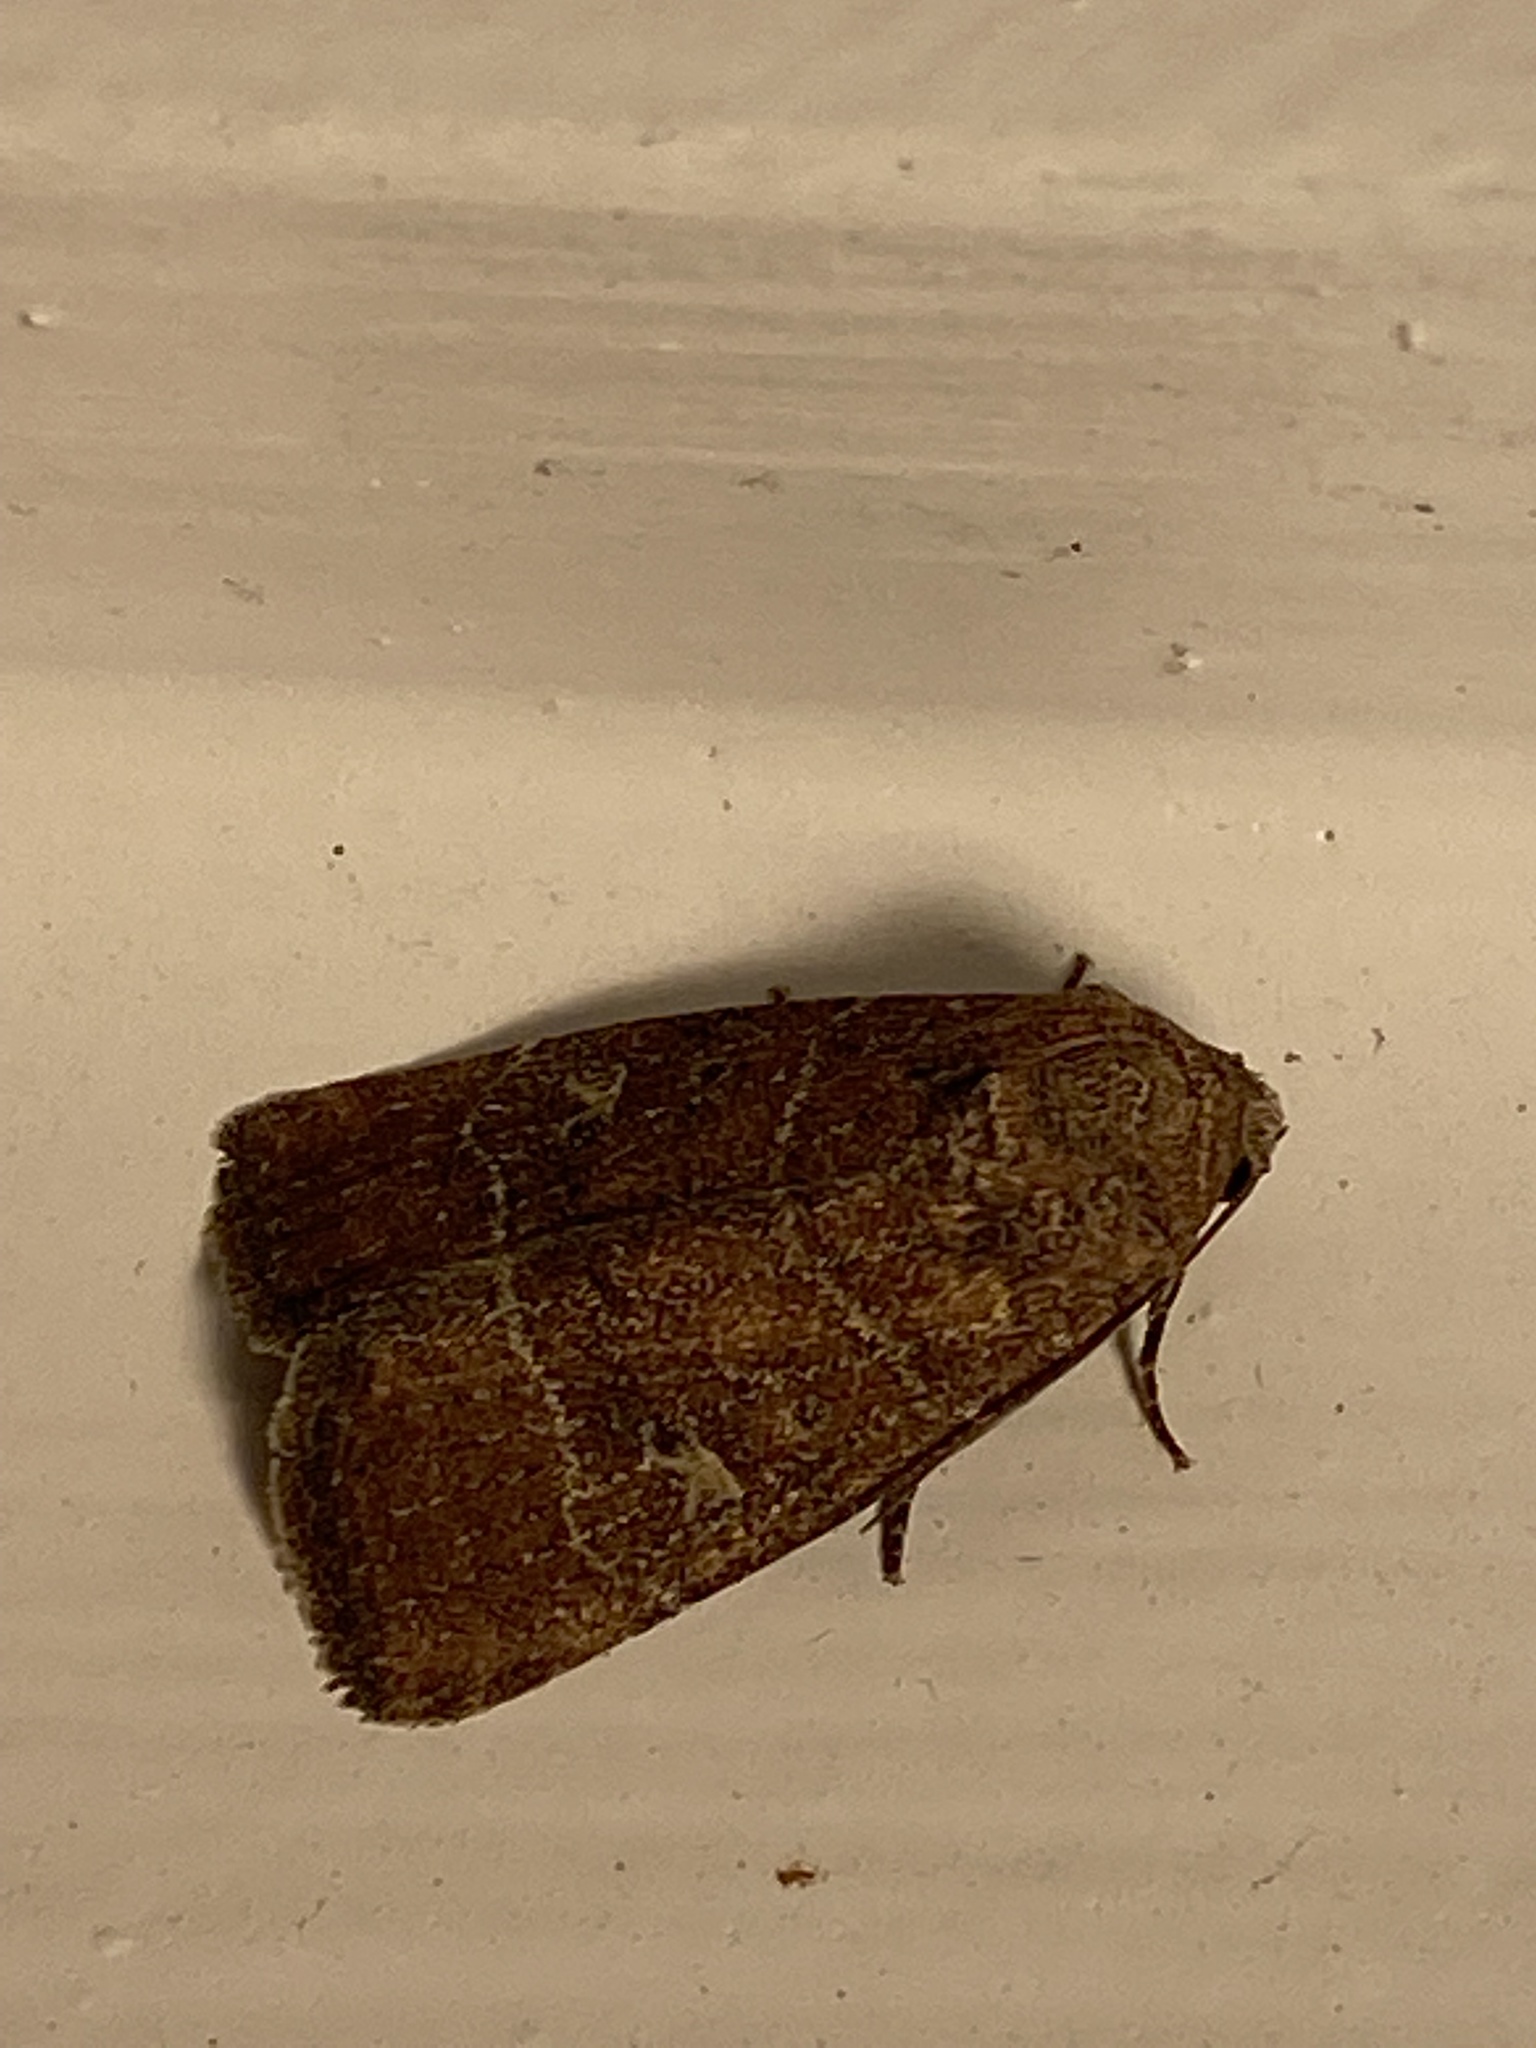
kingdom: Animalia
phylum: Arthropoda
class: Insecta
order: Lepidoptera
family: Noctuidae
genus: Elaphria
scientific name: Elaphria grata
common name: Grateful midget moth
